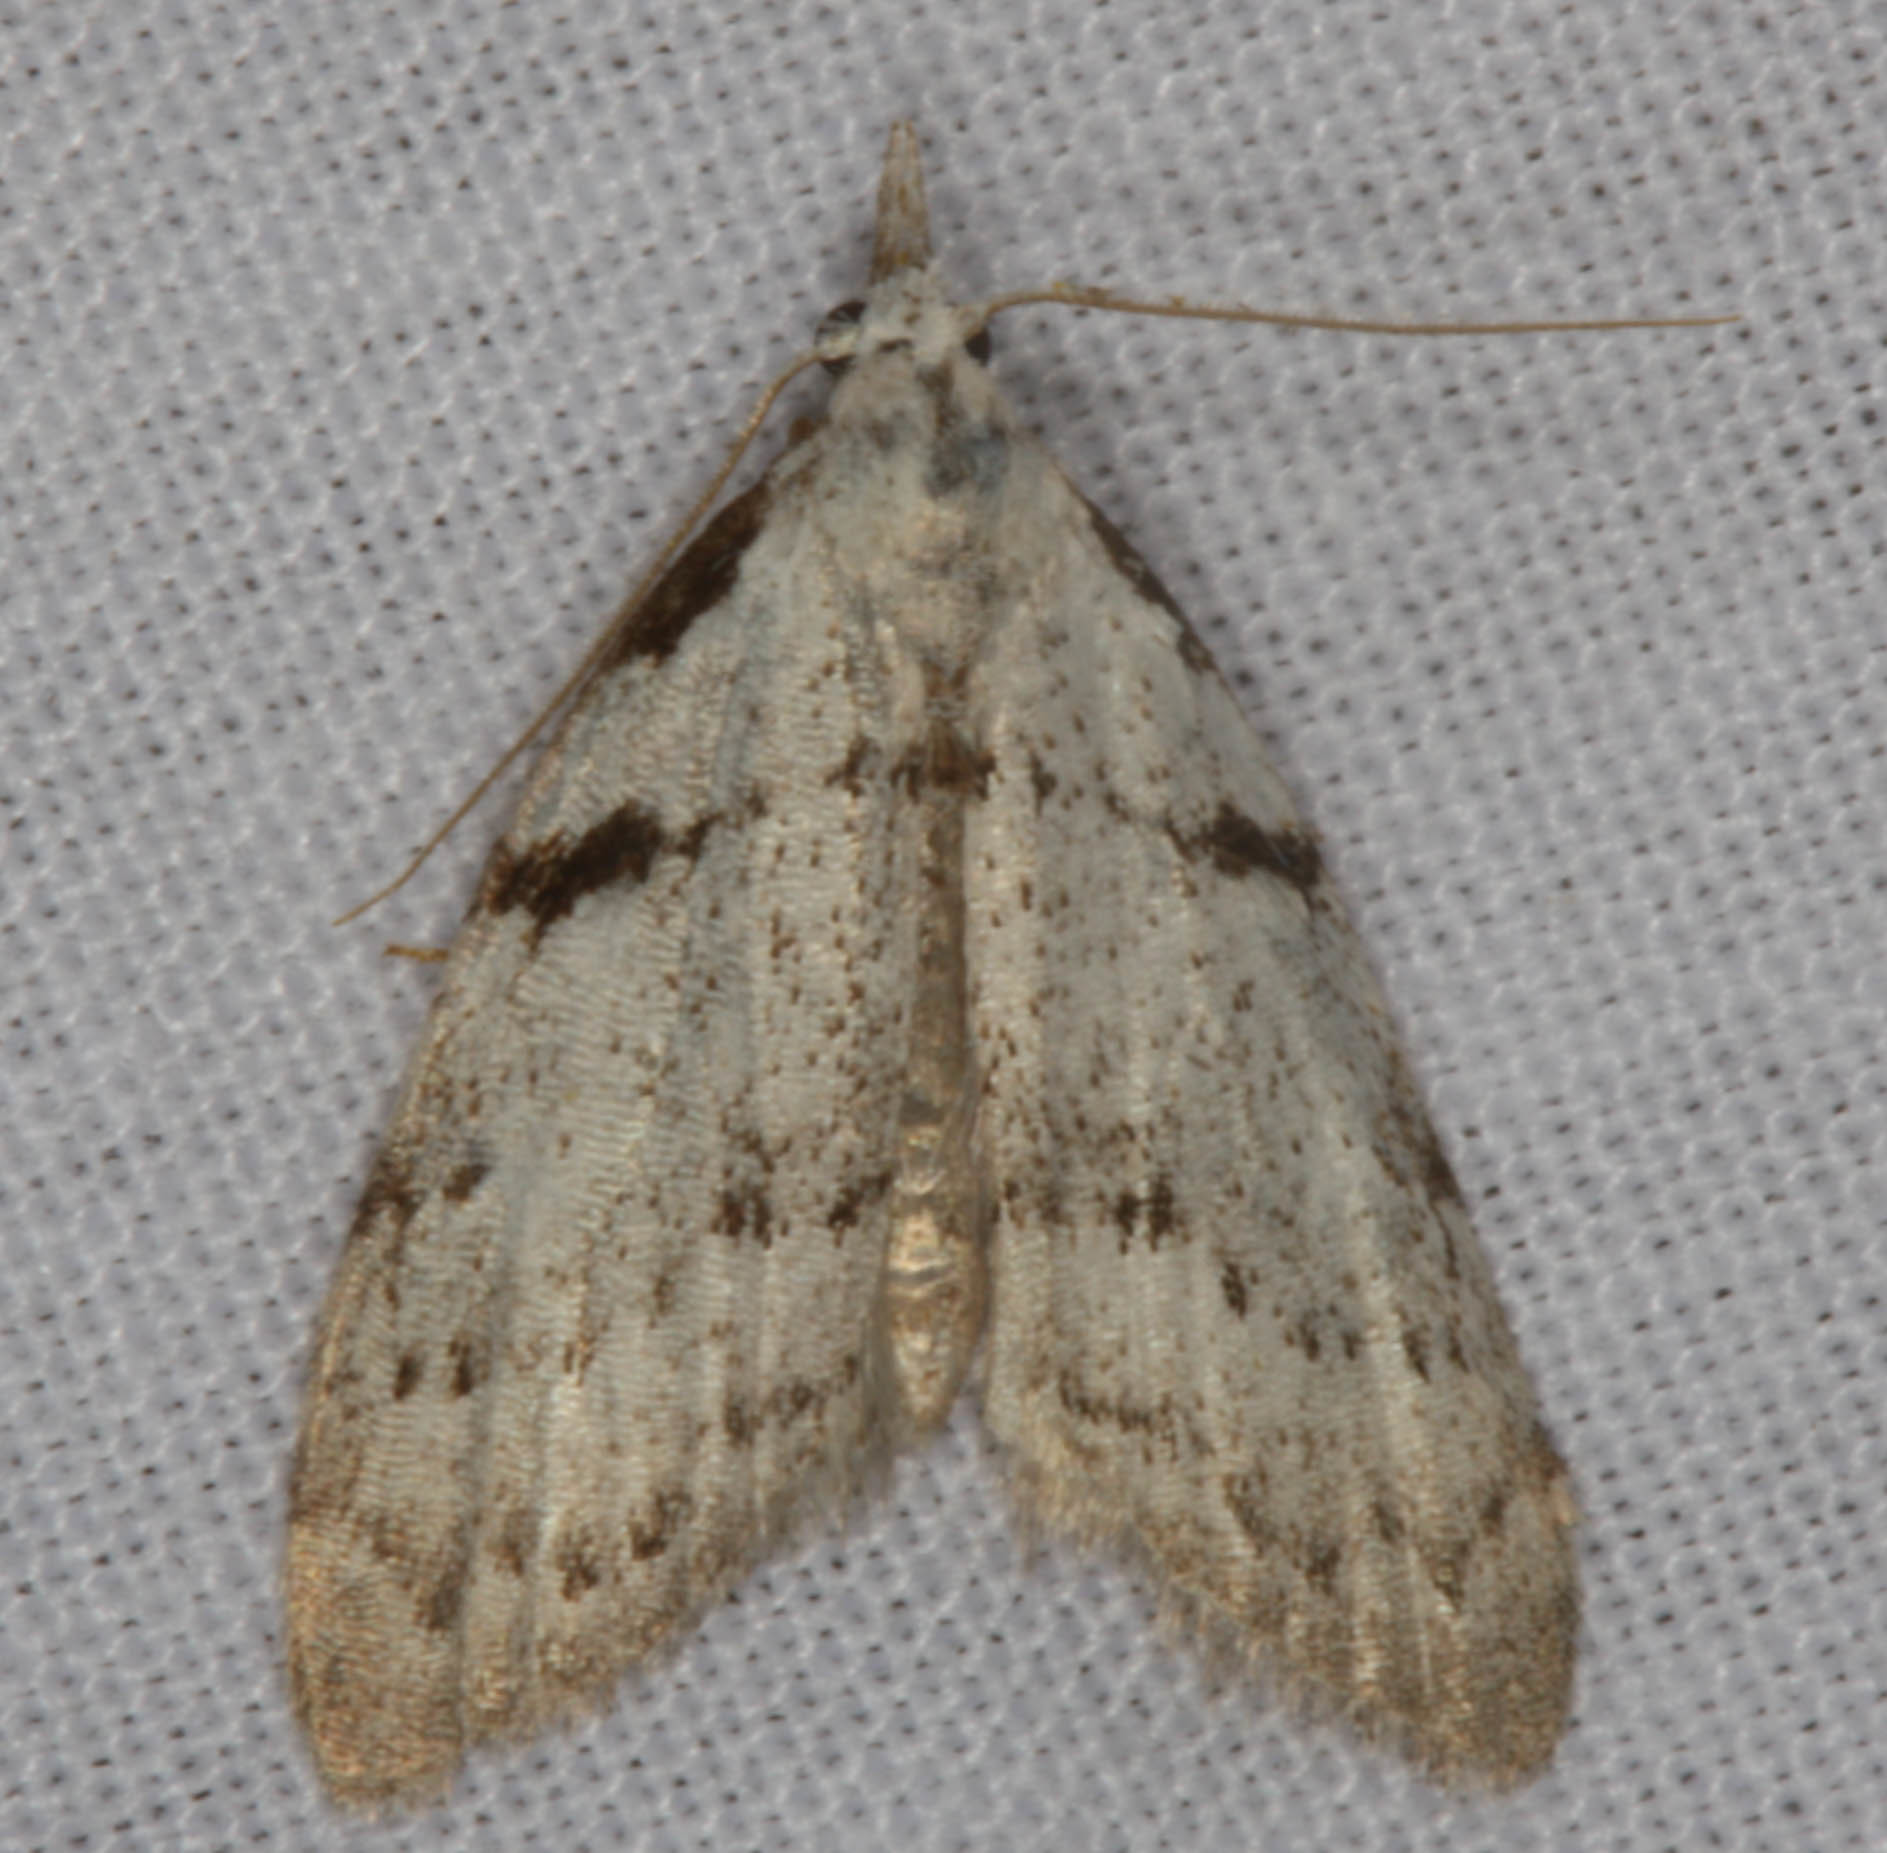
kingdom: Animalia
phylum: Arthropoda
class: Insecta
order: Lepidoptera
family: Nolidae
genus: Nola
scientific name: Nola minna
